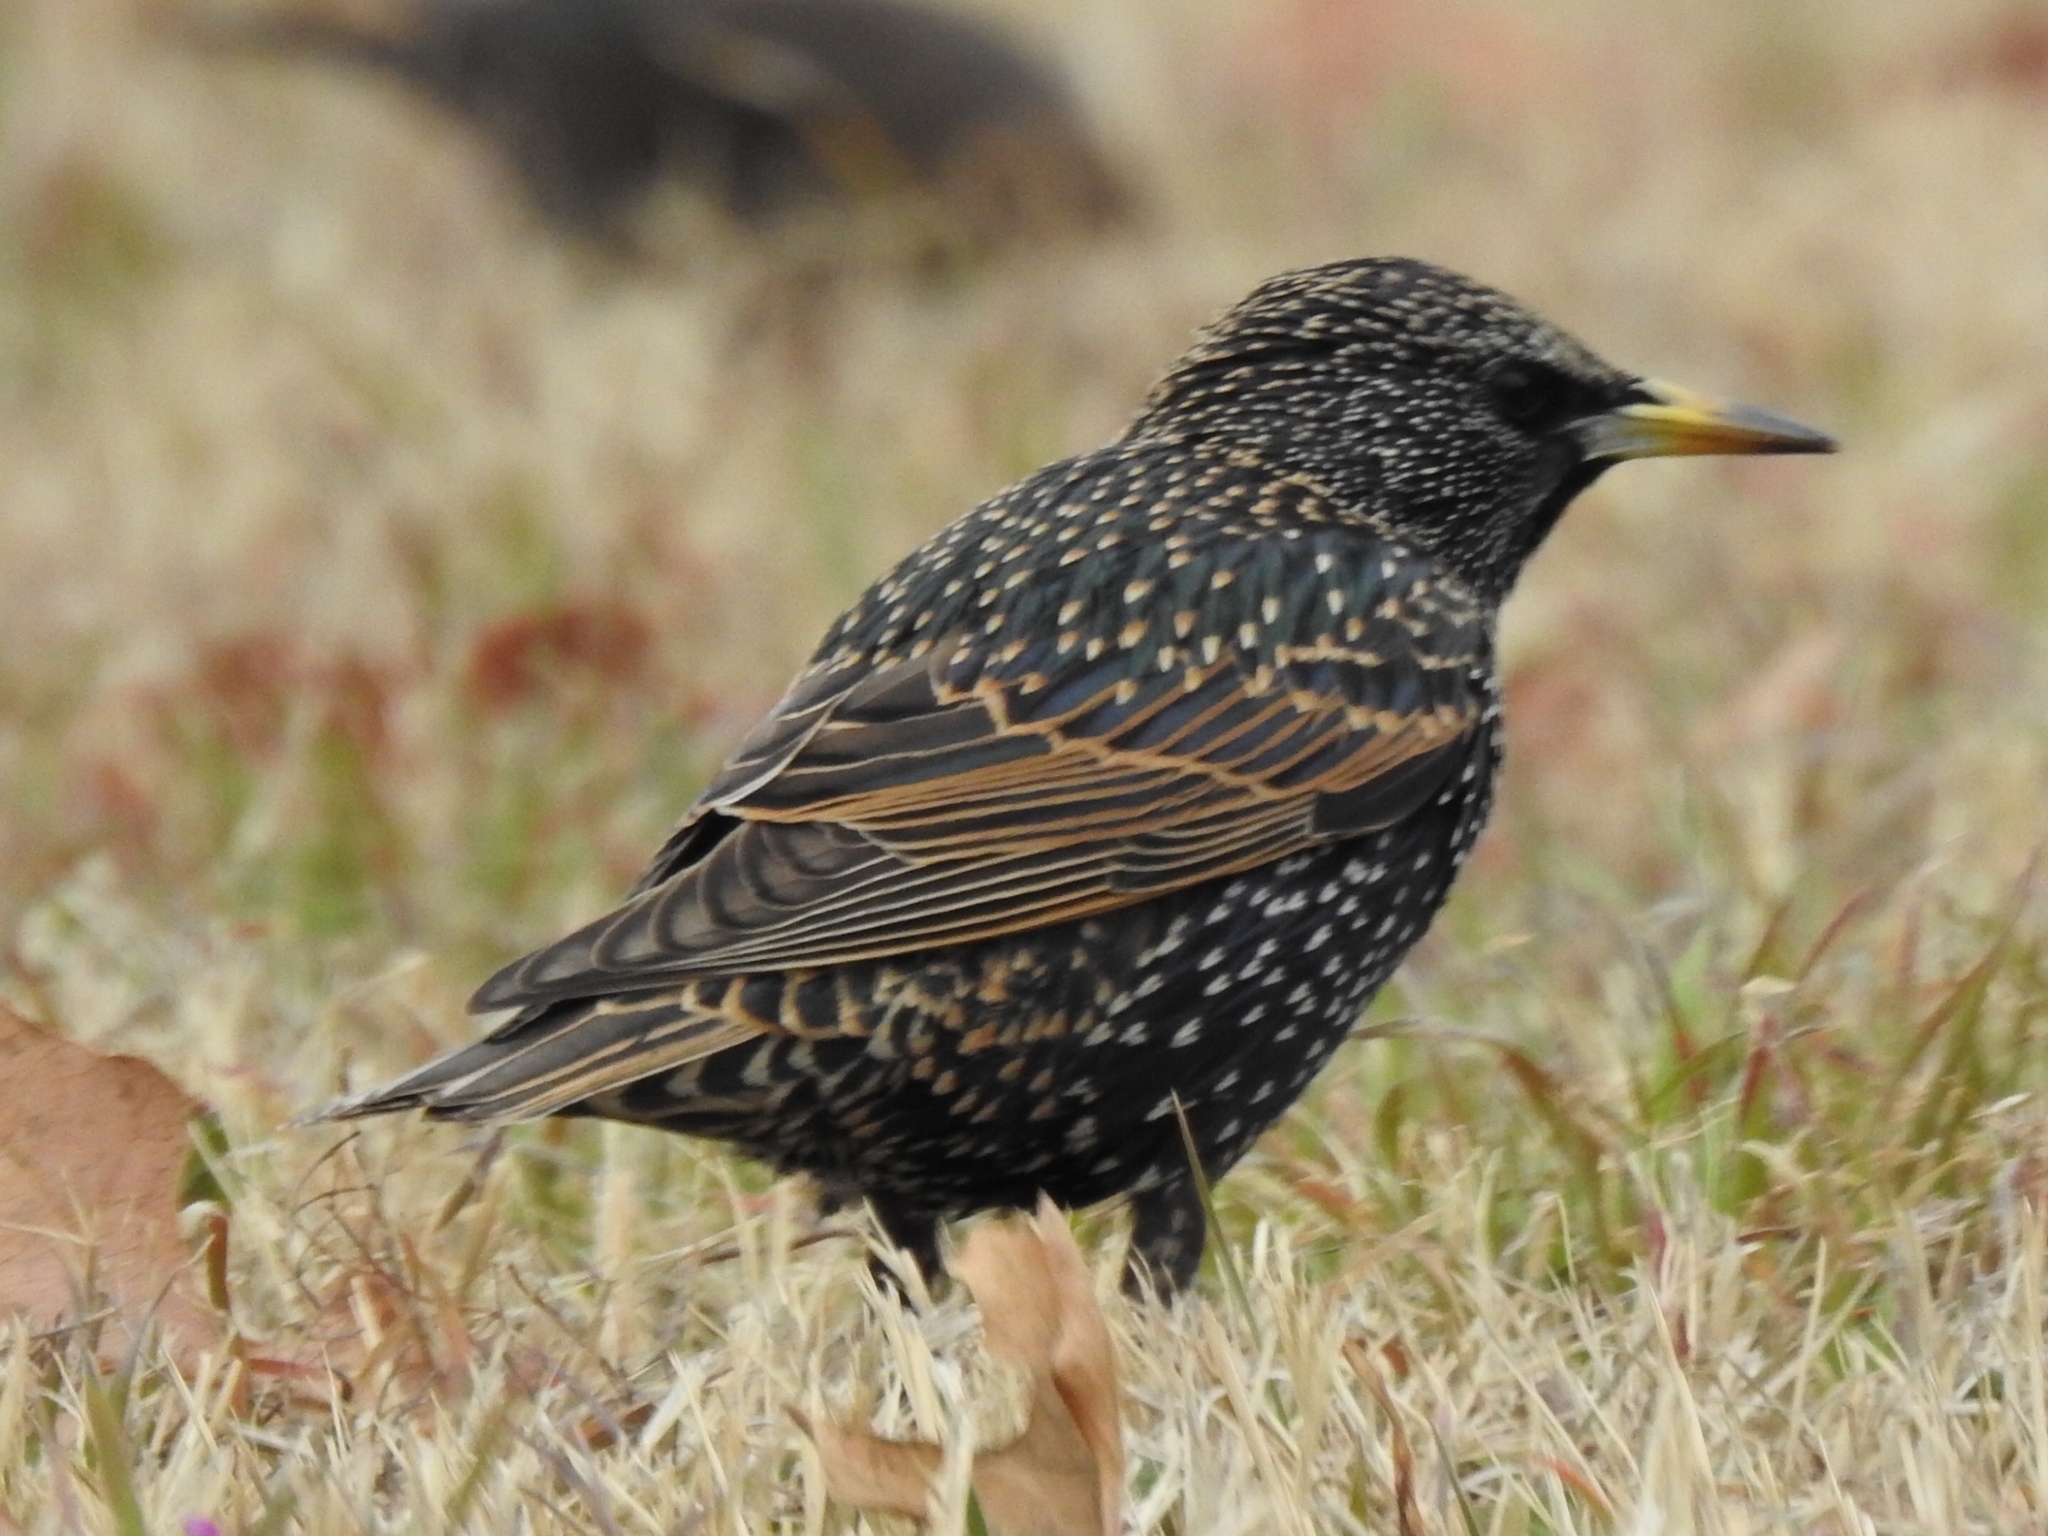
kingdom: Animalia
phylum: Chordata
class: Aves
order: Passeriformes
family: Sturnidae
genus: Sturnus
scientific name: Sturnus vulgaris
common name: Common starling
